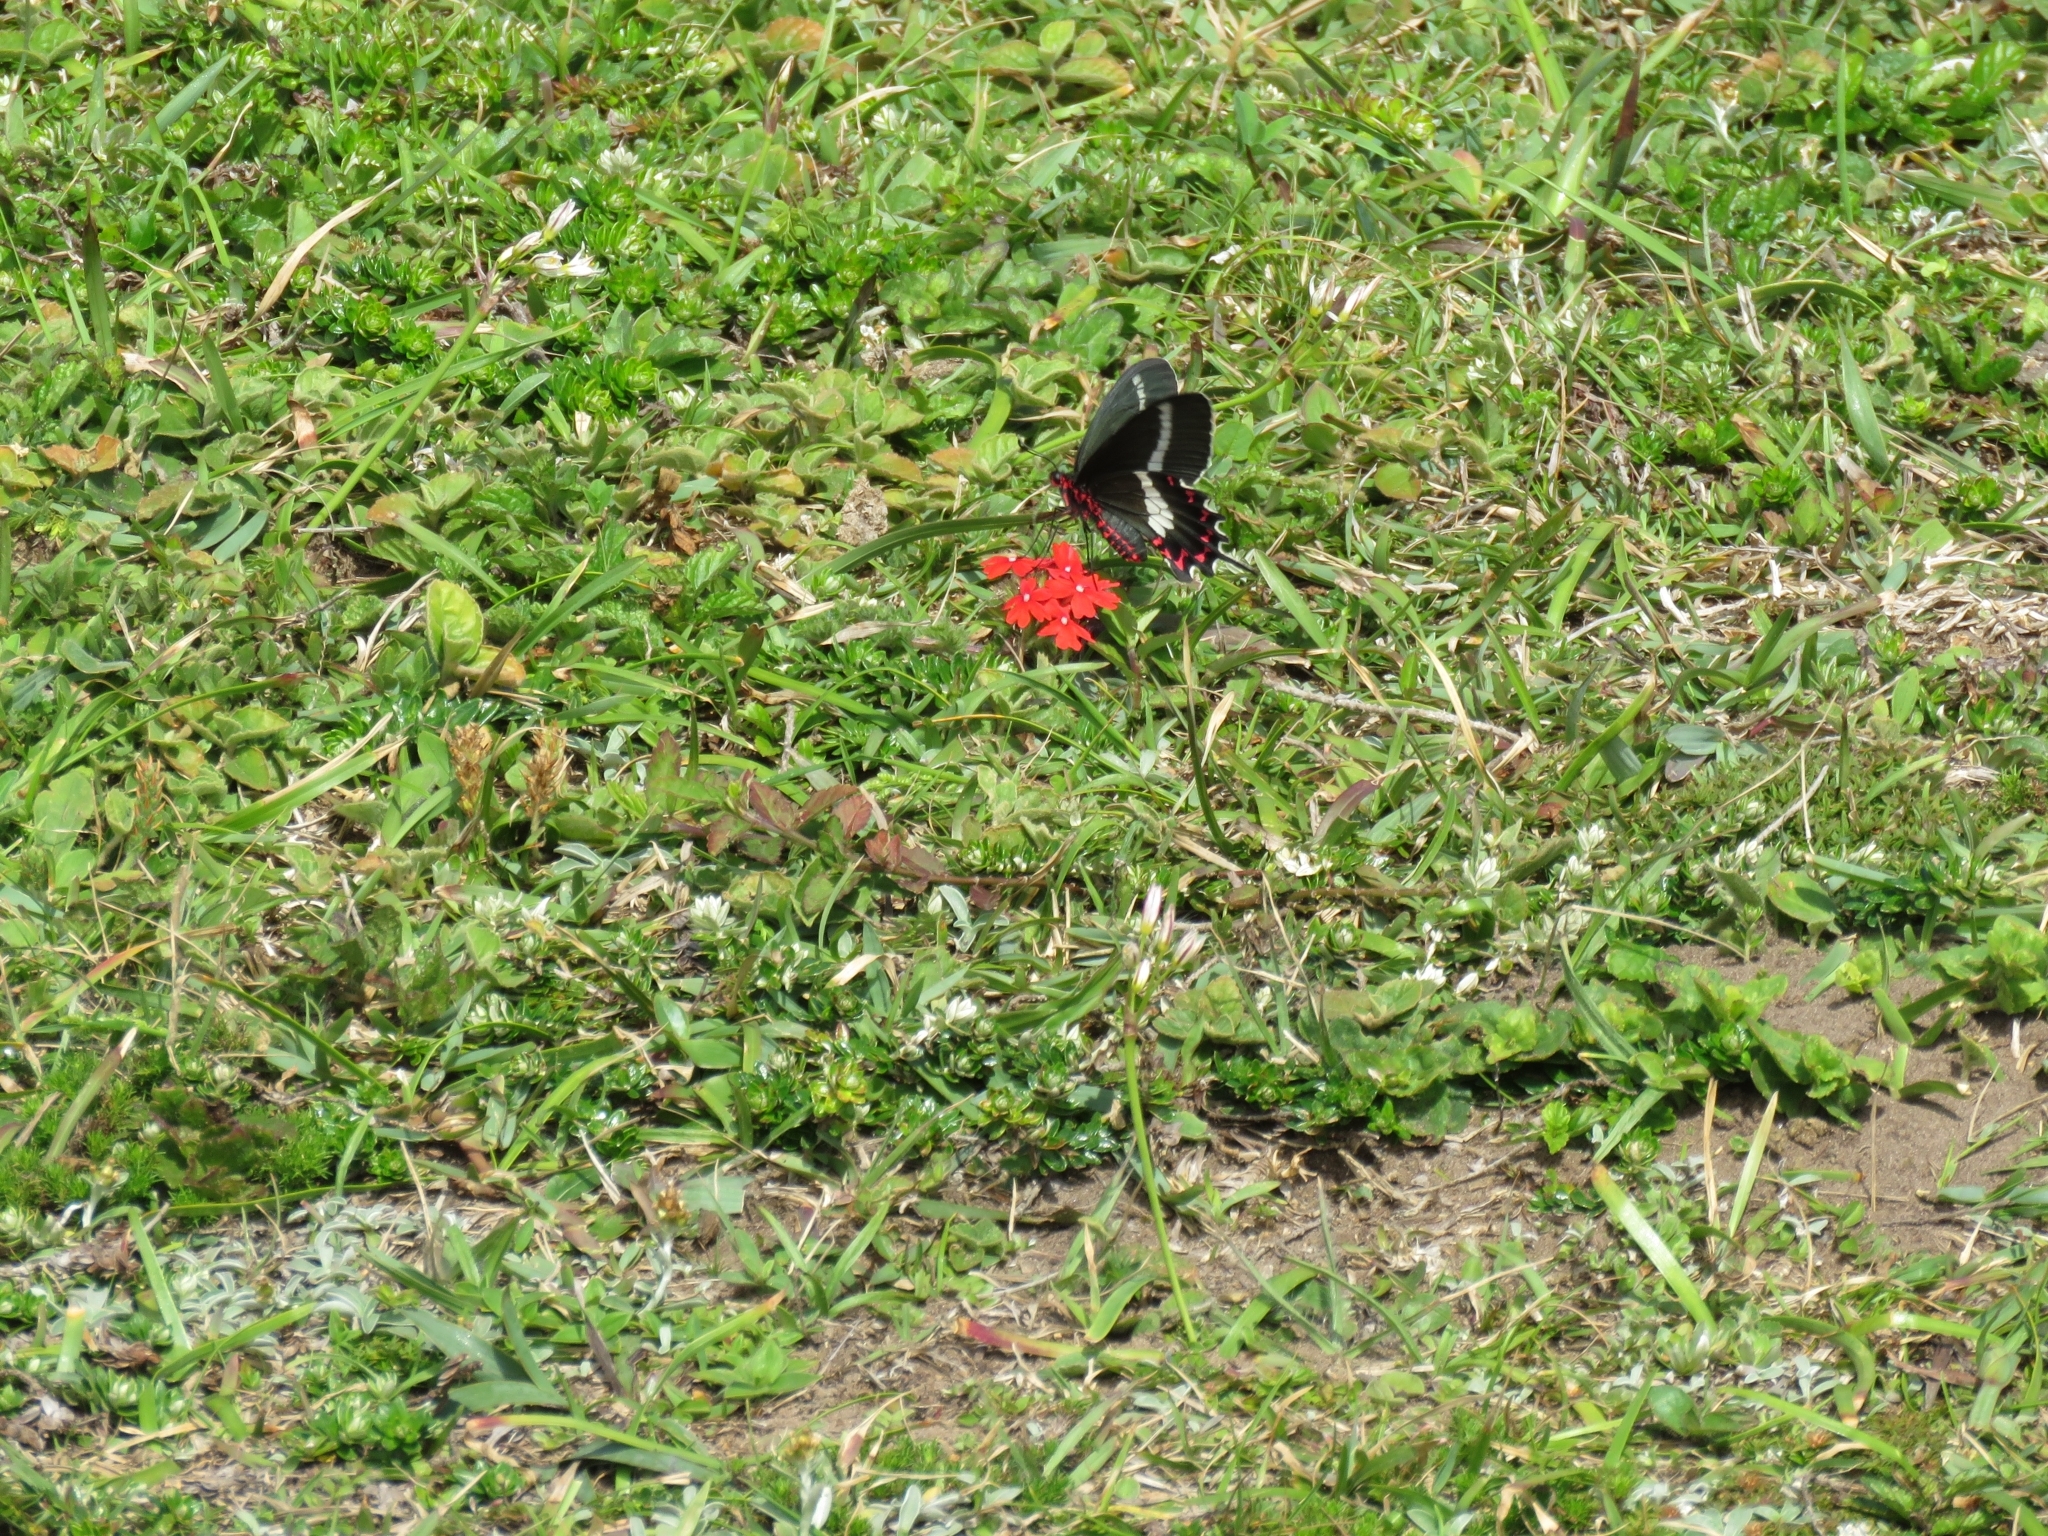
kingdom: Animalia
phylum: Arthropoda
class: Insecta
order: Lepidoptera
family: Papilionidae
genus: Parides
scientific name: Parides bunichus
